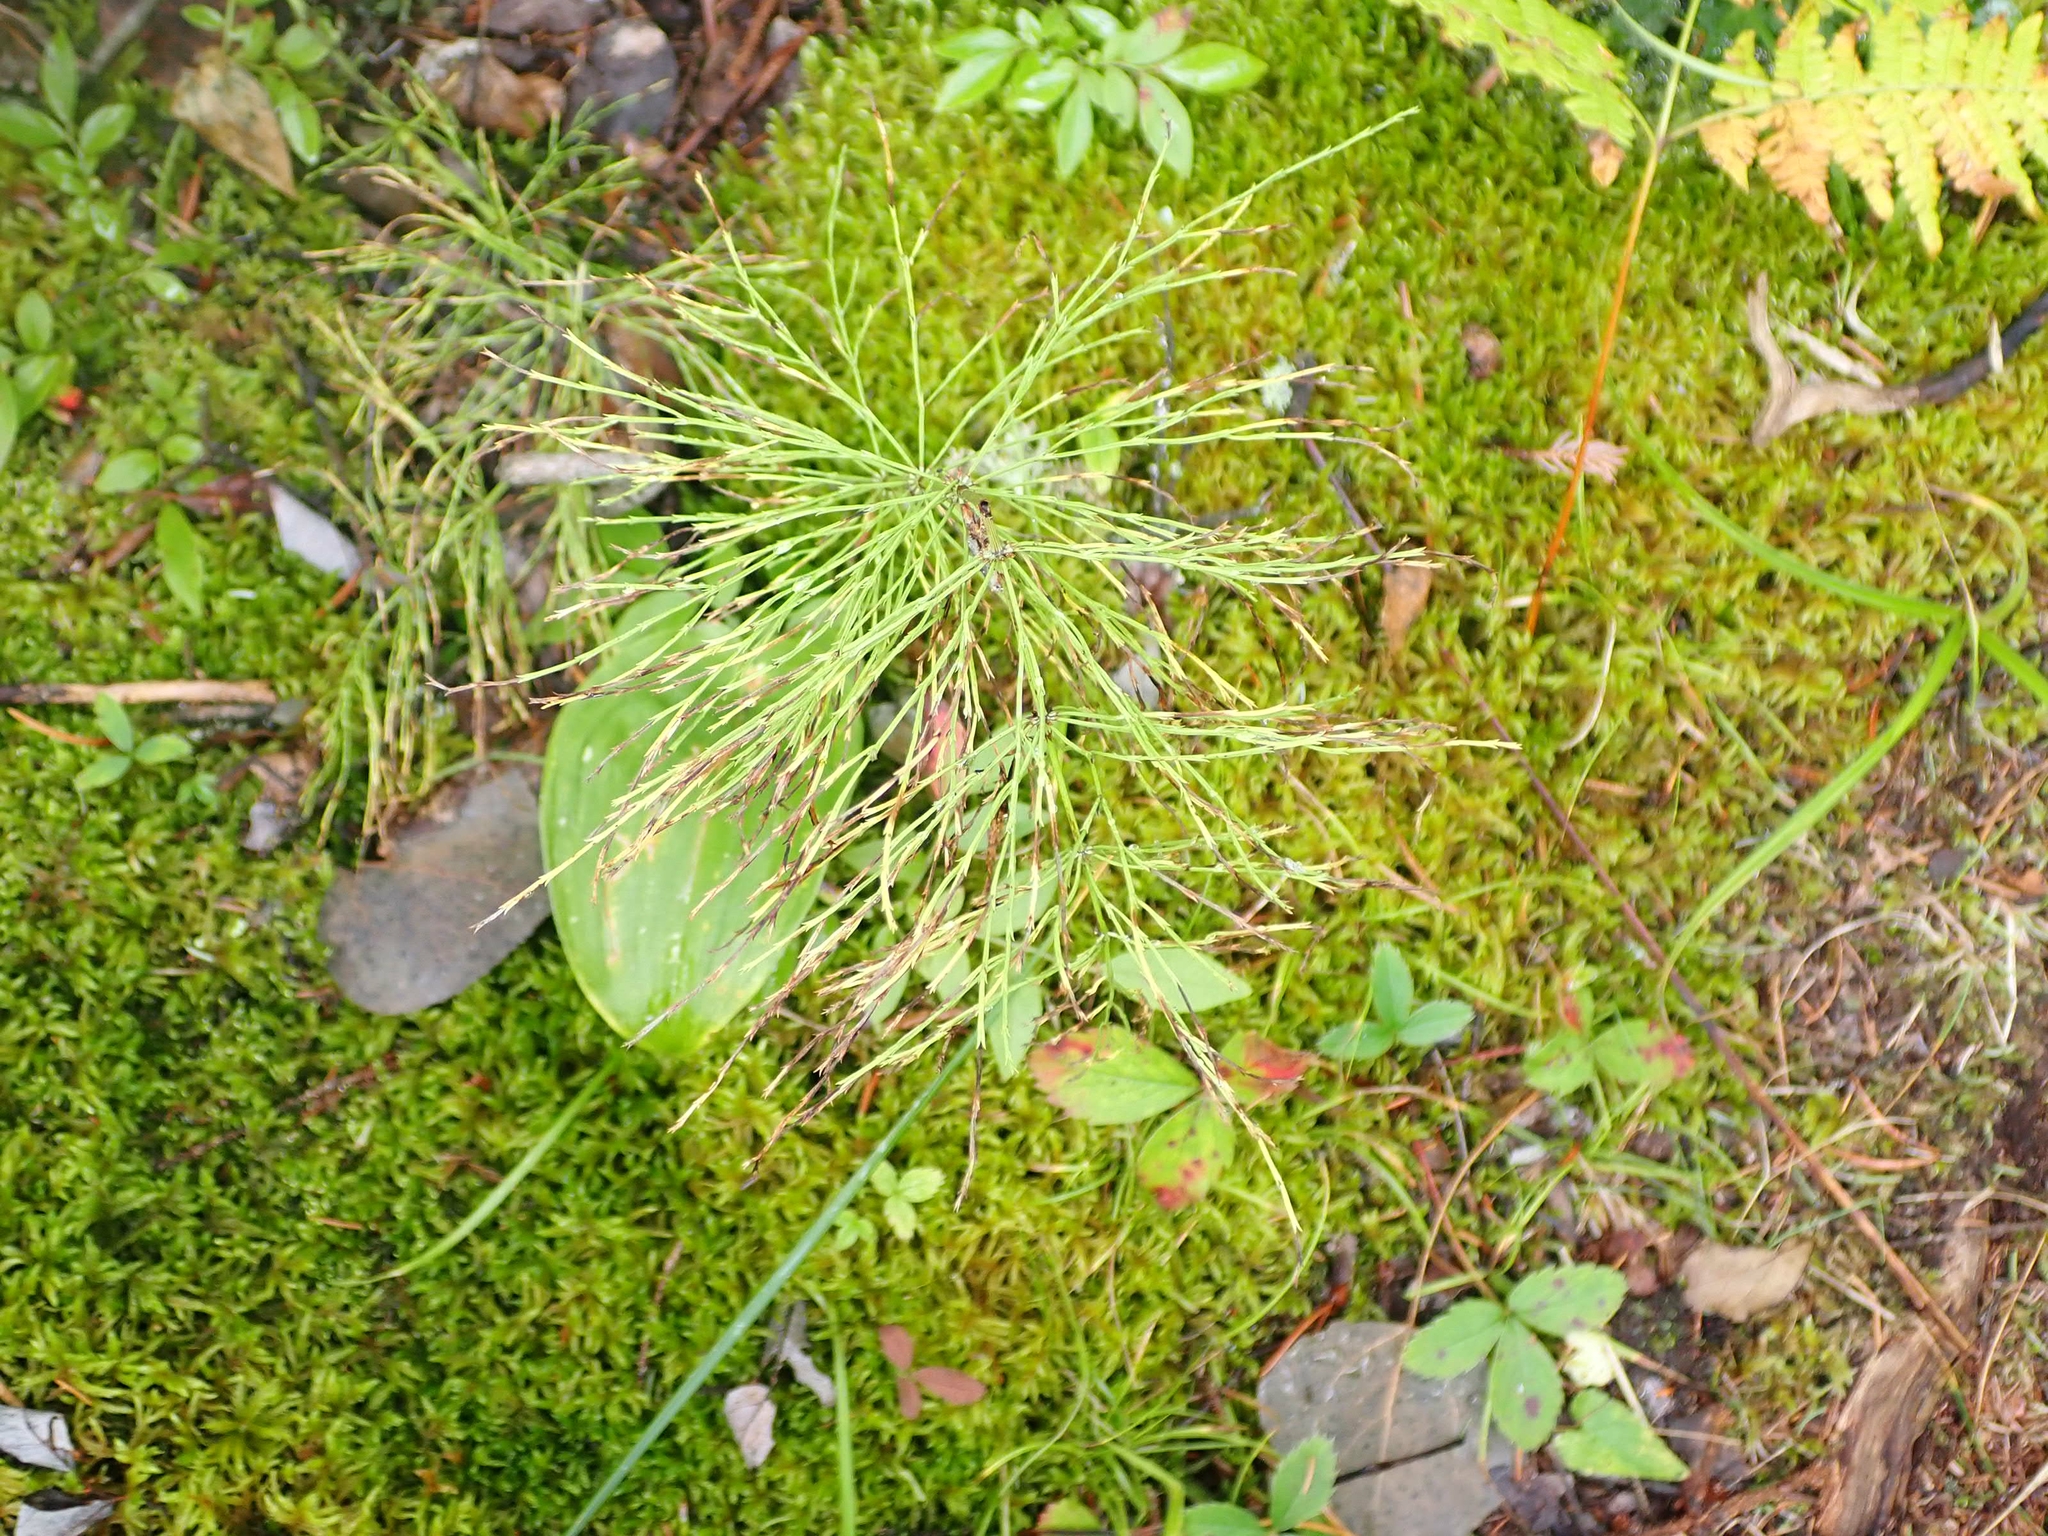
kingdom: Plantae
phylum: Tracheophyta
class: Polypodiopsida
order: Equisetales
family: Equisetaceae
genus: Equisetum
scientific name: Equisetum sylvaticum
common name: Wood horsetail
